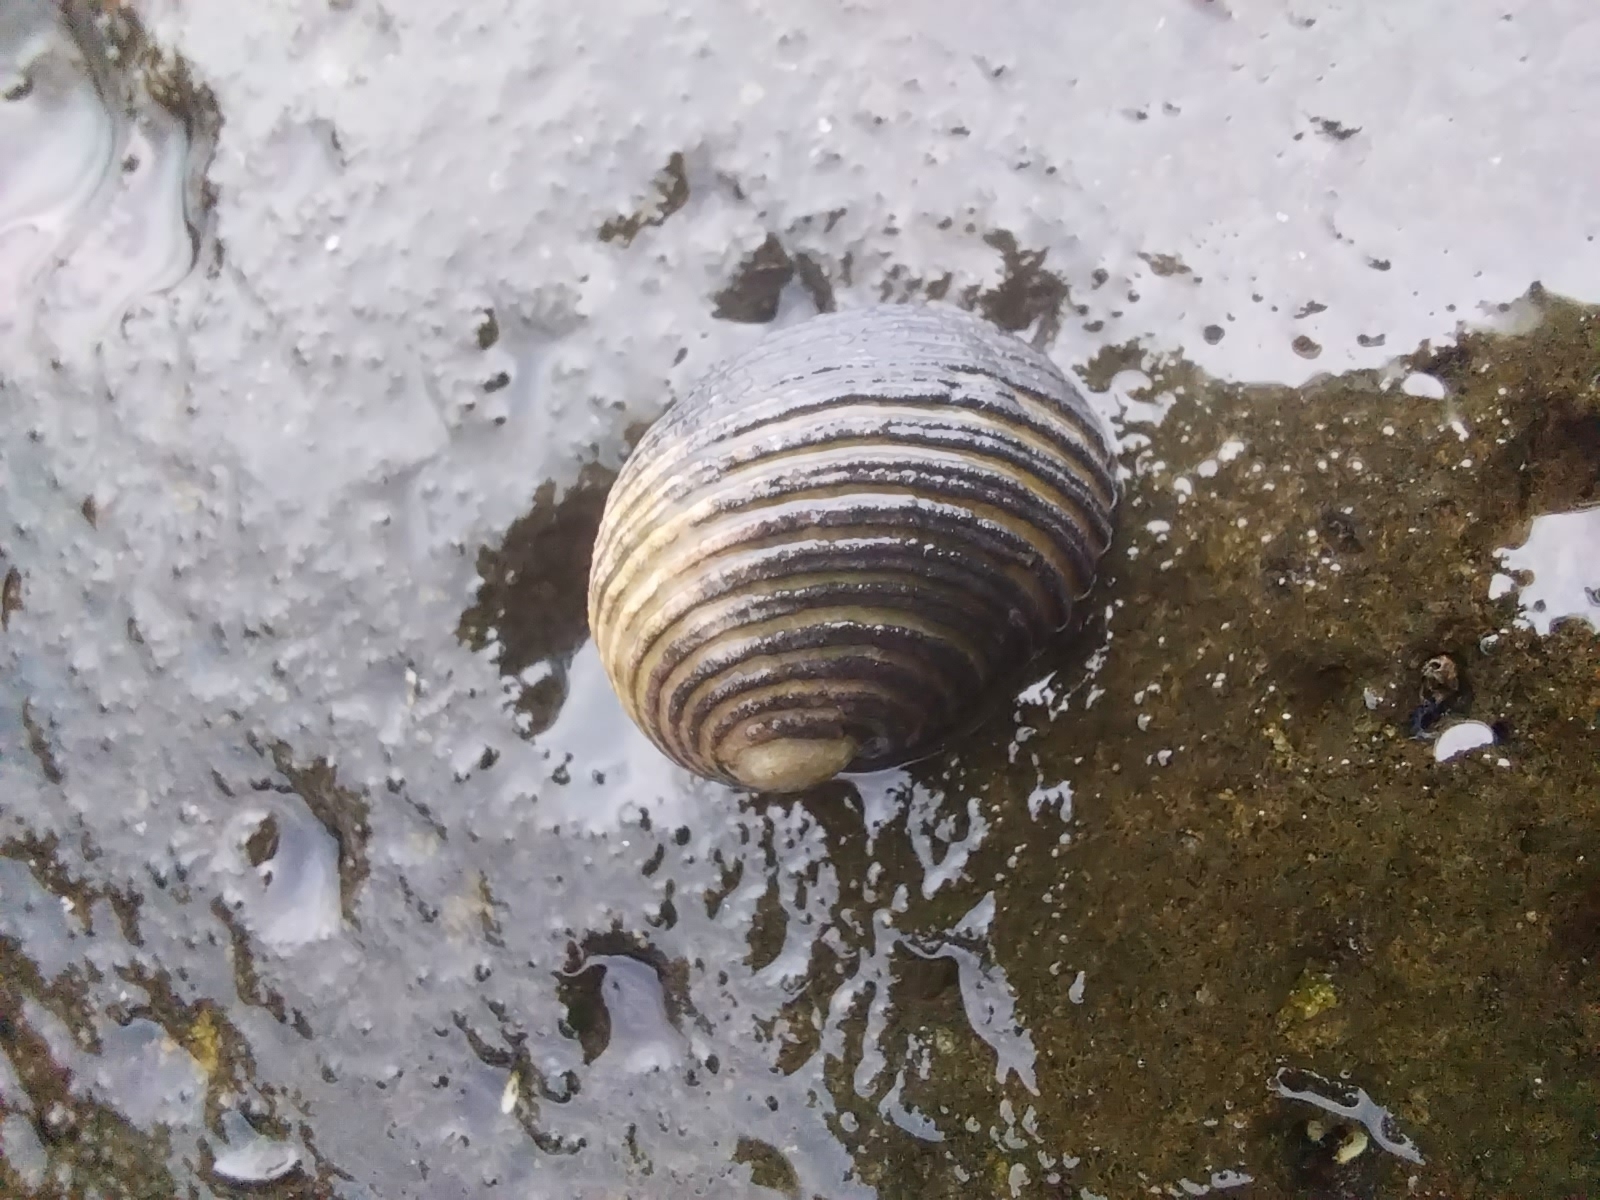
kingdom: Animalia
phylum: Mollusca
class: Gastropoda
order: Cycloneritida
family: Neritidae
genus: Nerita
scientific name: Nerita magdalenae
